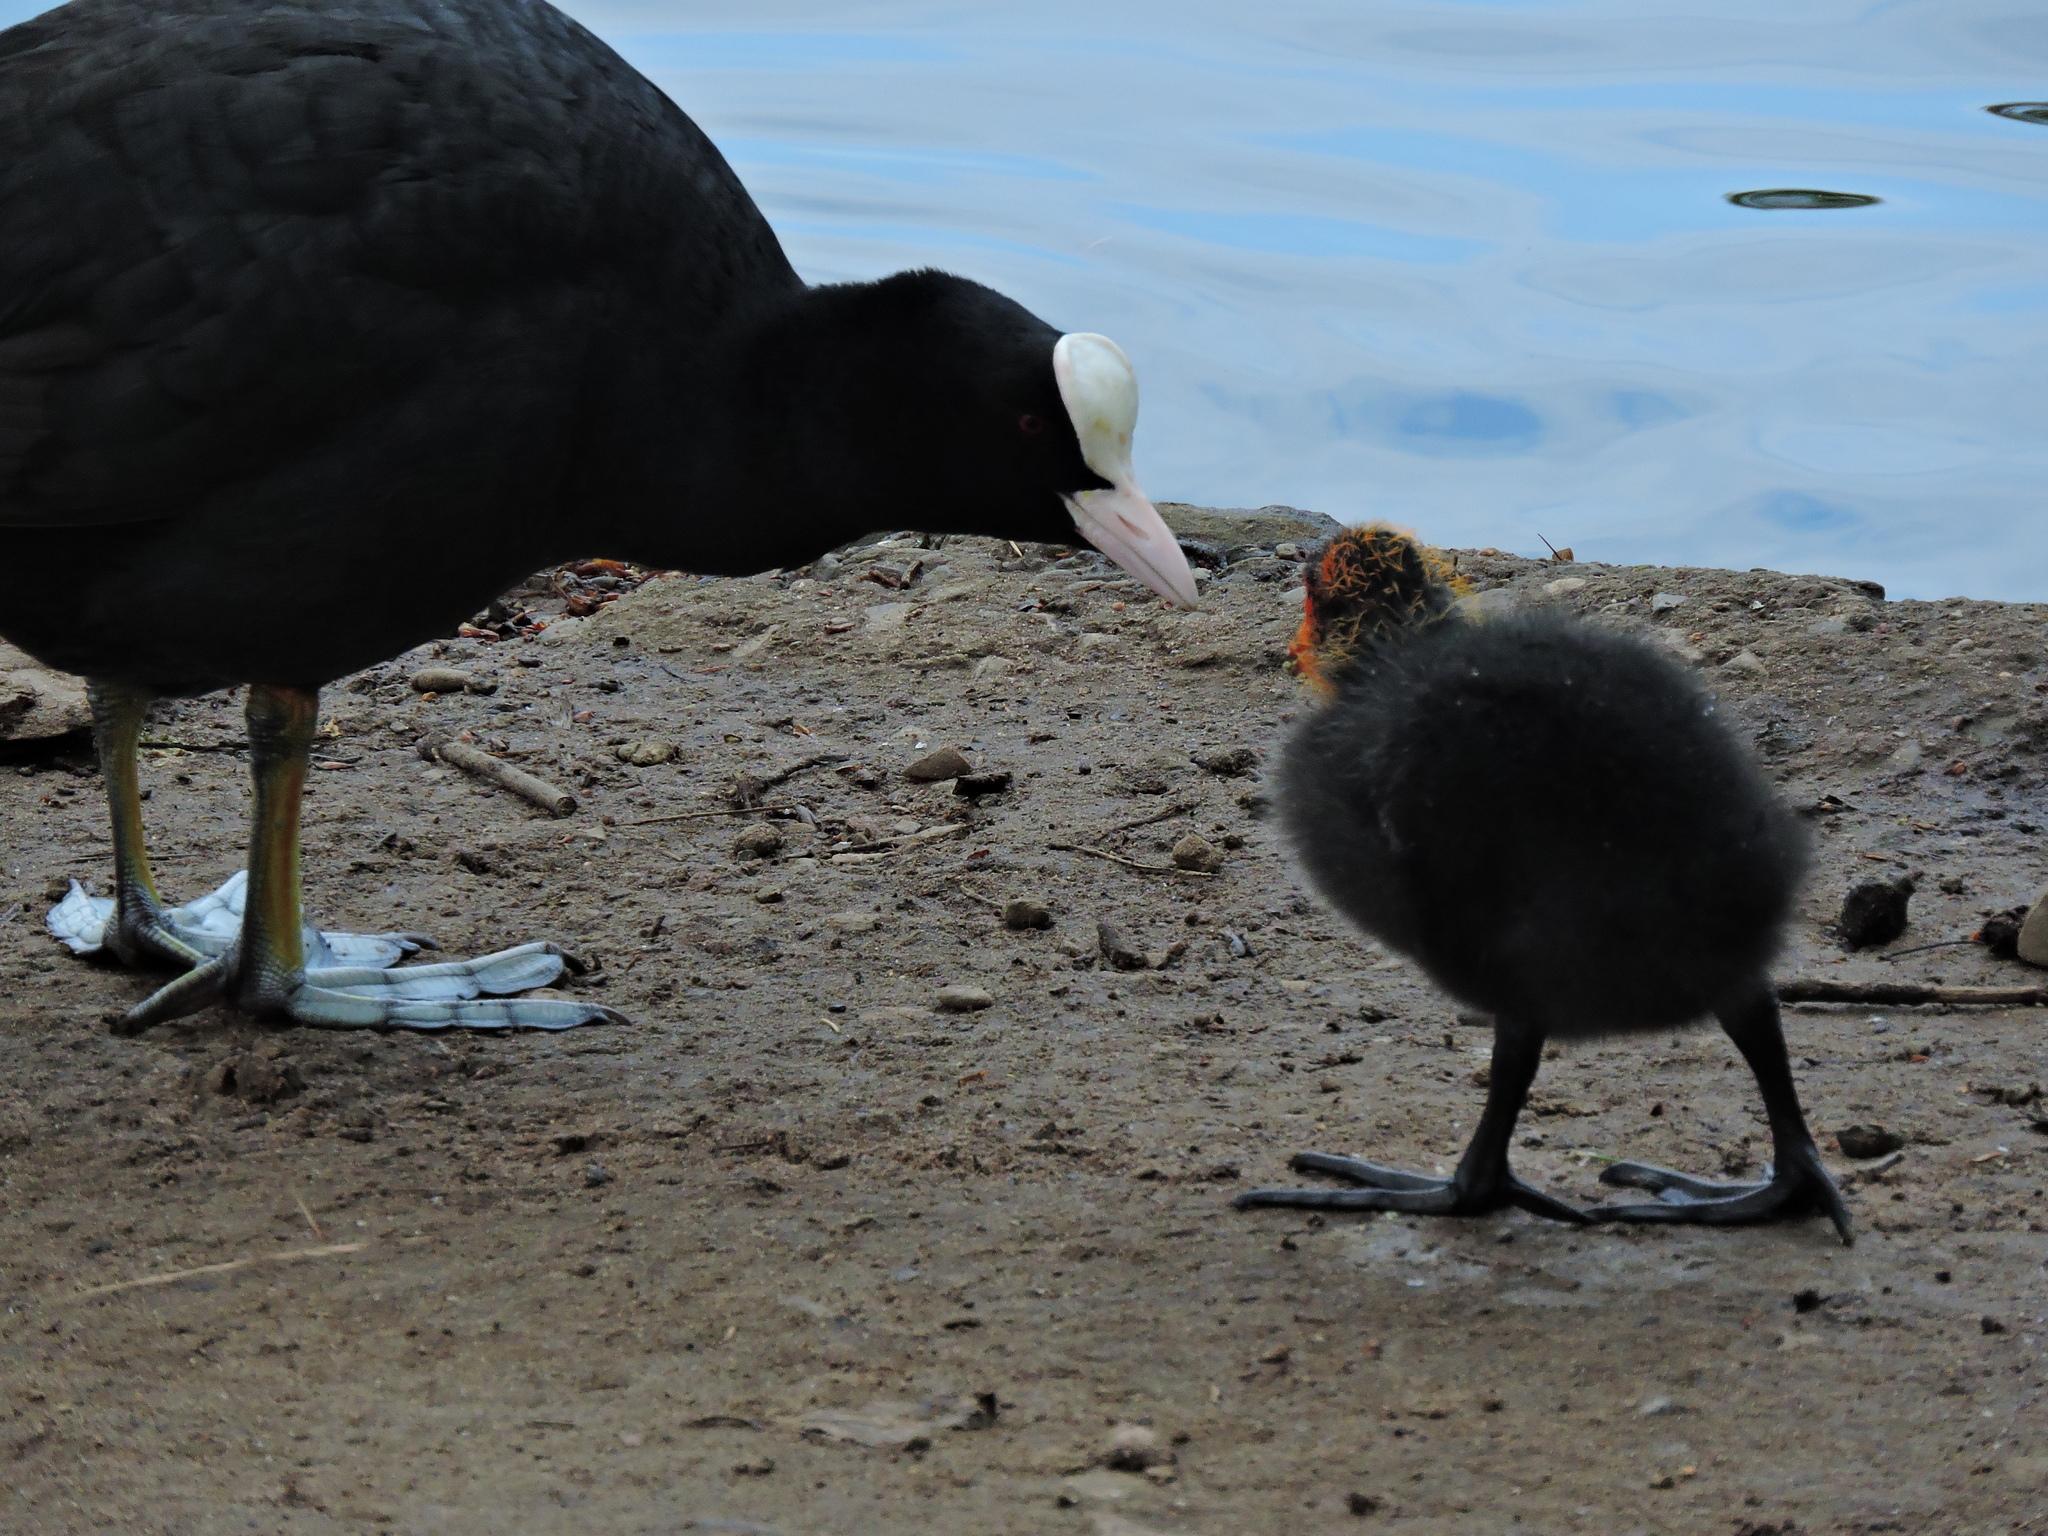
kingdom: Animalia
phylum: Chordata
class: Aves
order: Gruiformes
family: Rallidae
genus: Fulica
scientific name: Fulica atra
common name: Eurasian coot
